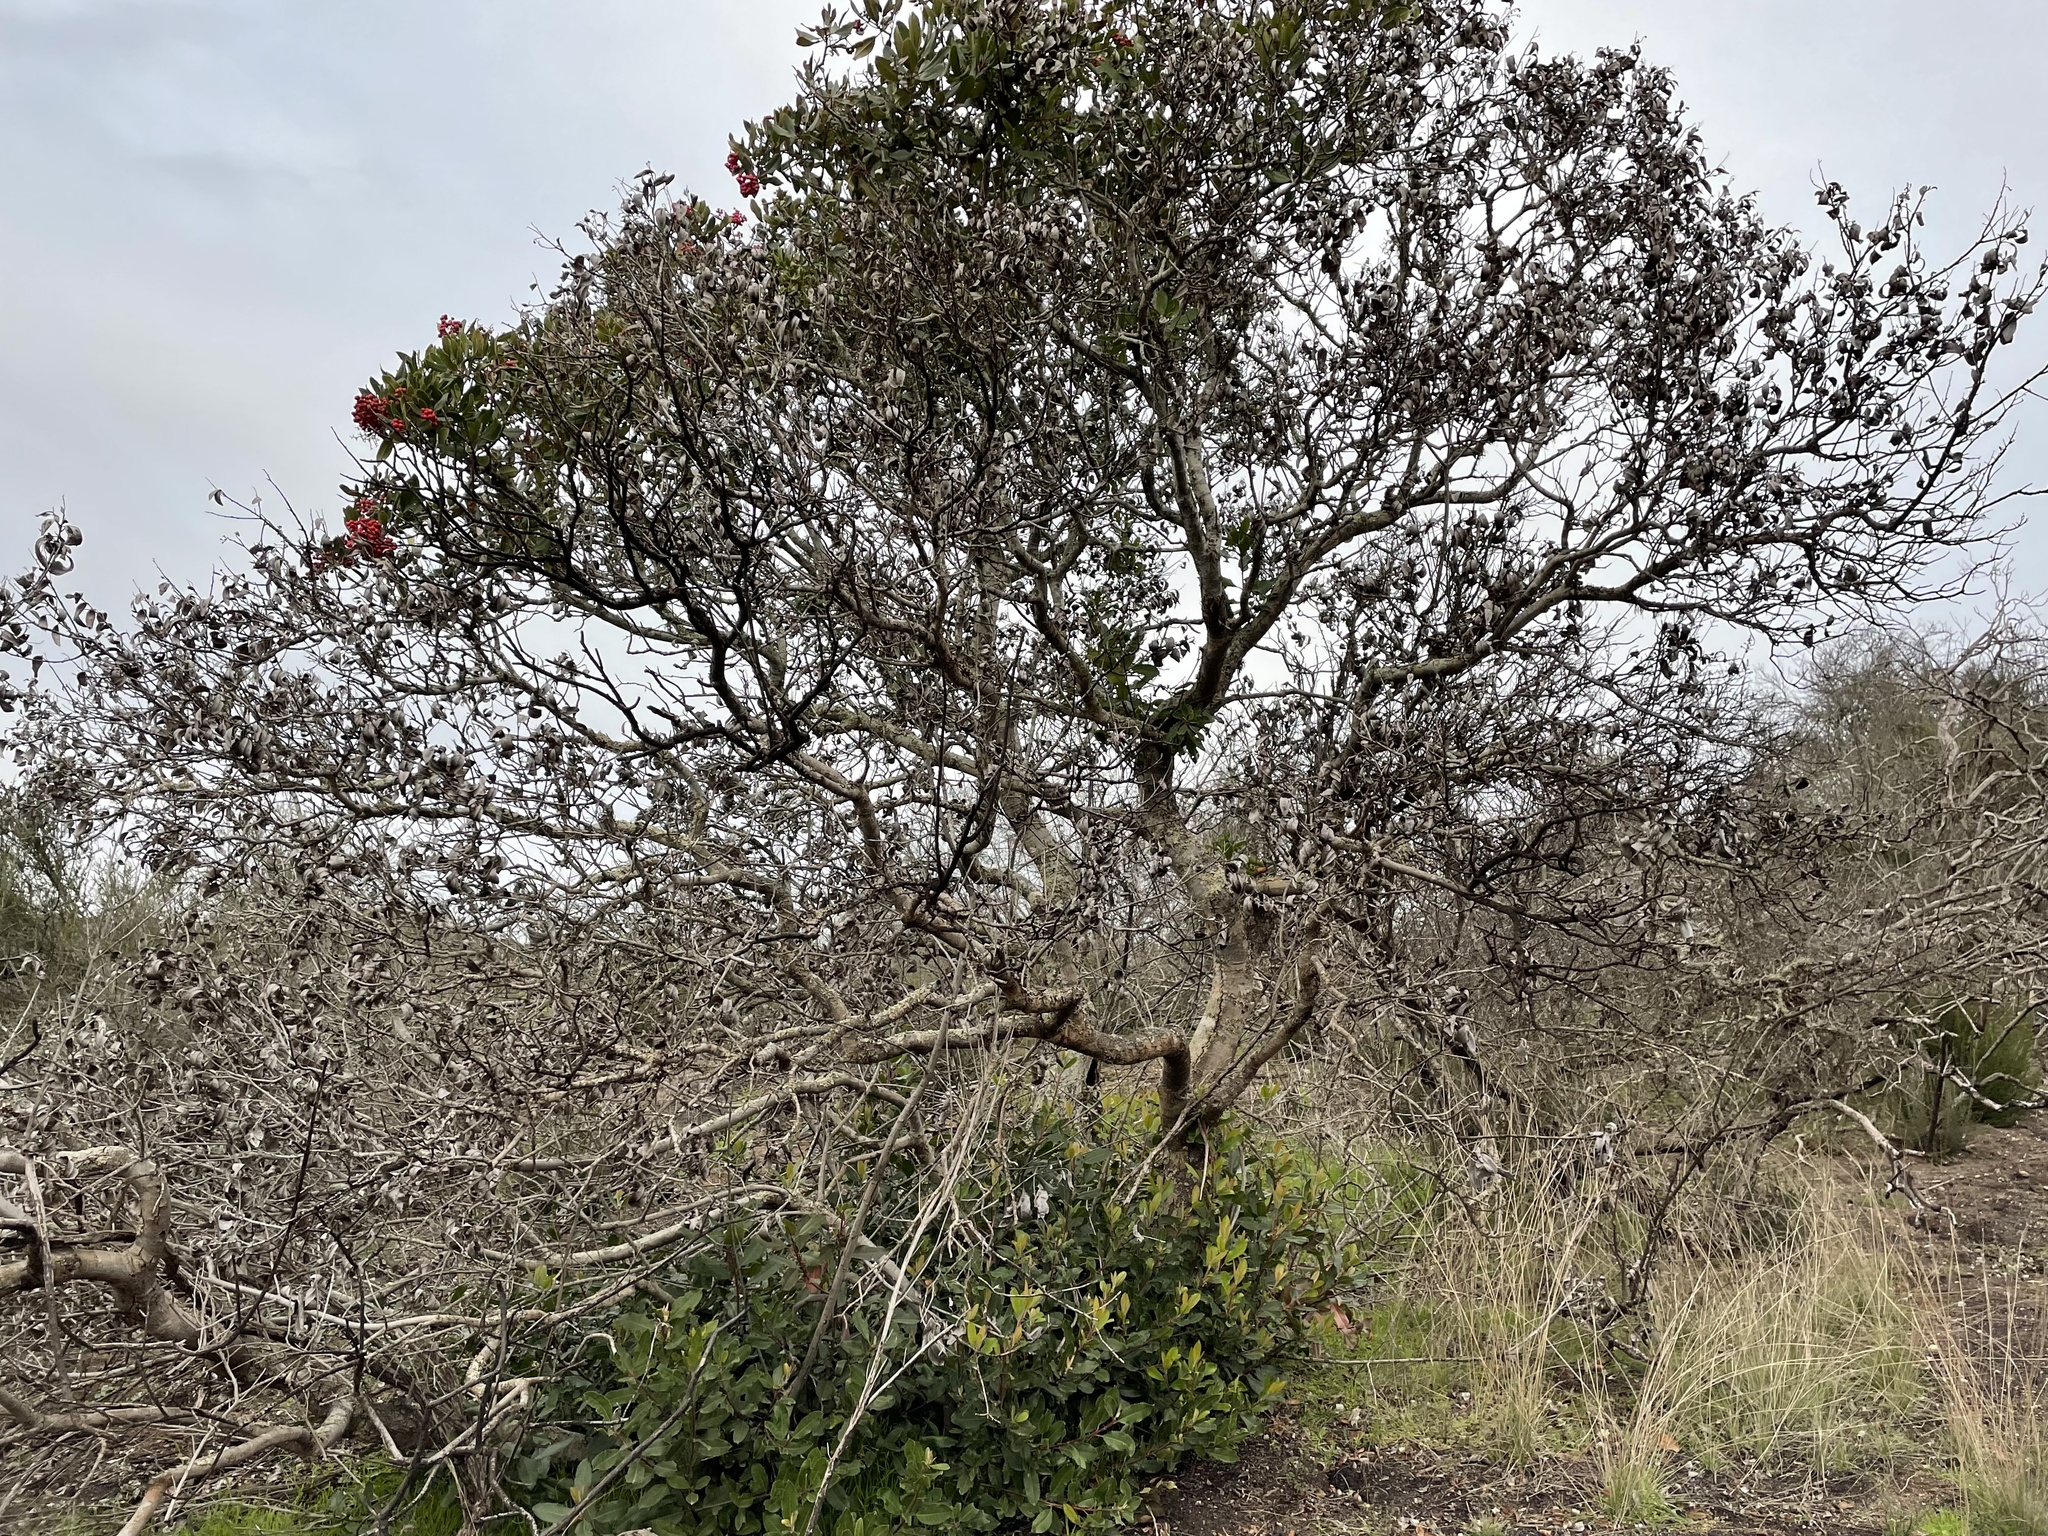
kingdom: Plantae
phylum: Tracheophyta
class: Magnoliopsida
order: Rosales
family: Rosaceae
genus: Heteromeles
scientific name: Heteromeles arbutifolia
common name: California-holly
